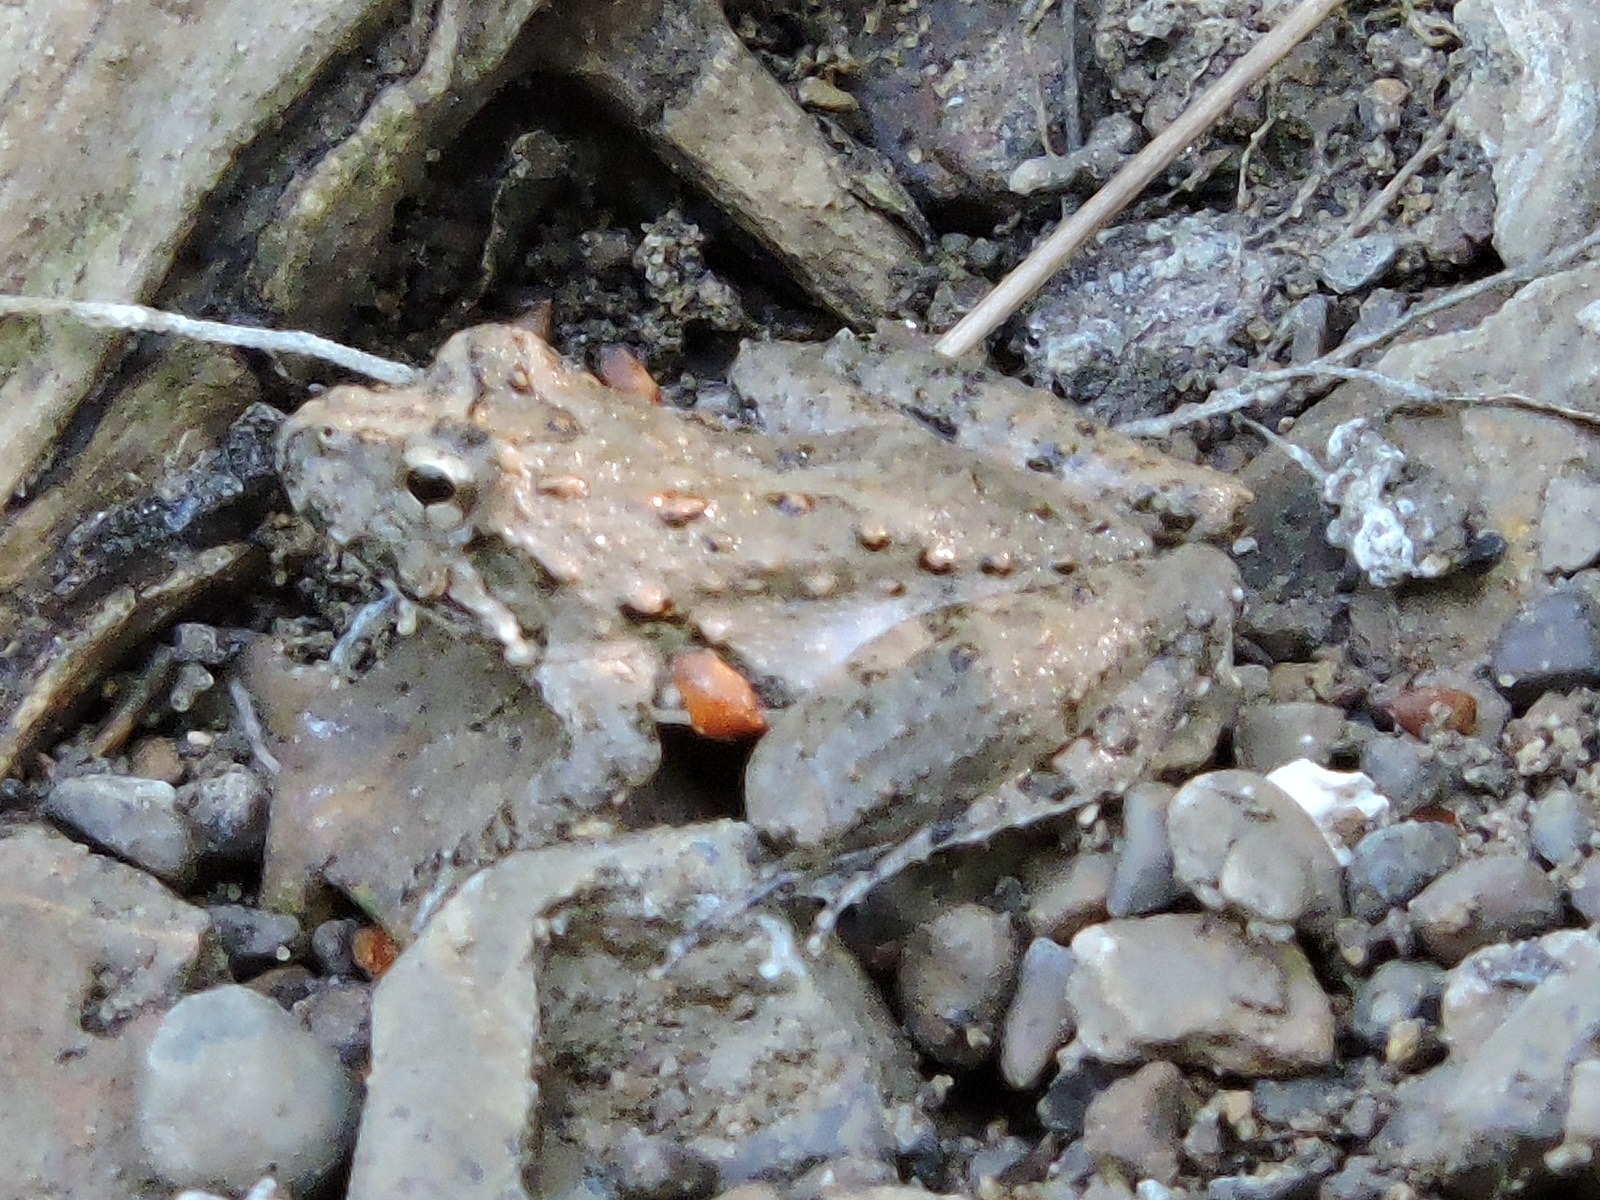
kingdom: Animalia
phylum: Chordata
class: Amphibia
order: Anura
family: Hylidae
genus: Acris
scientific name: Acris blanchardi
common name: Blanchard's cricket frog
